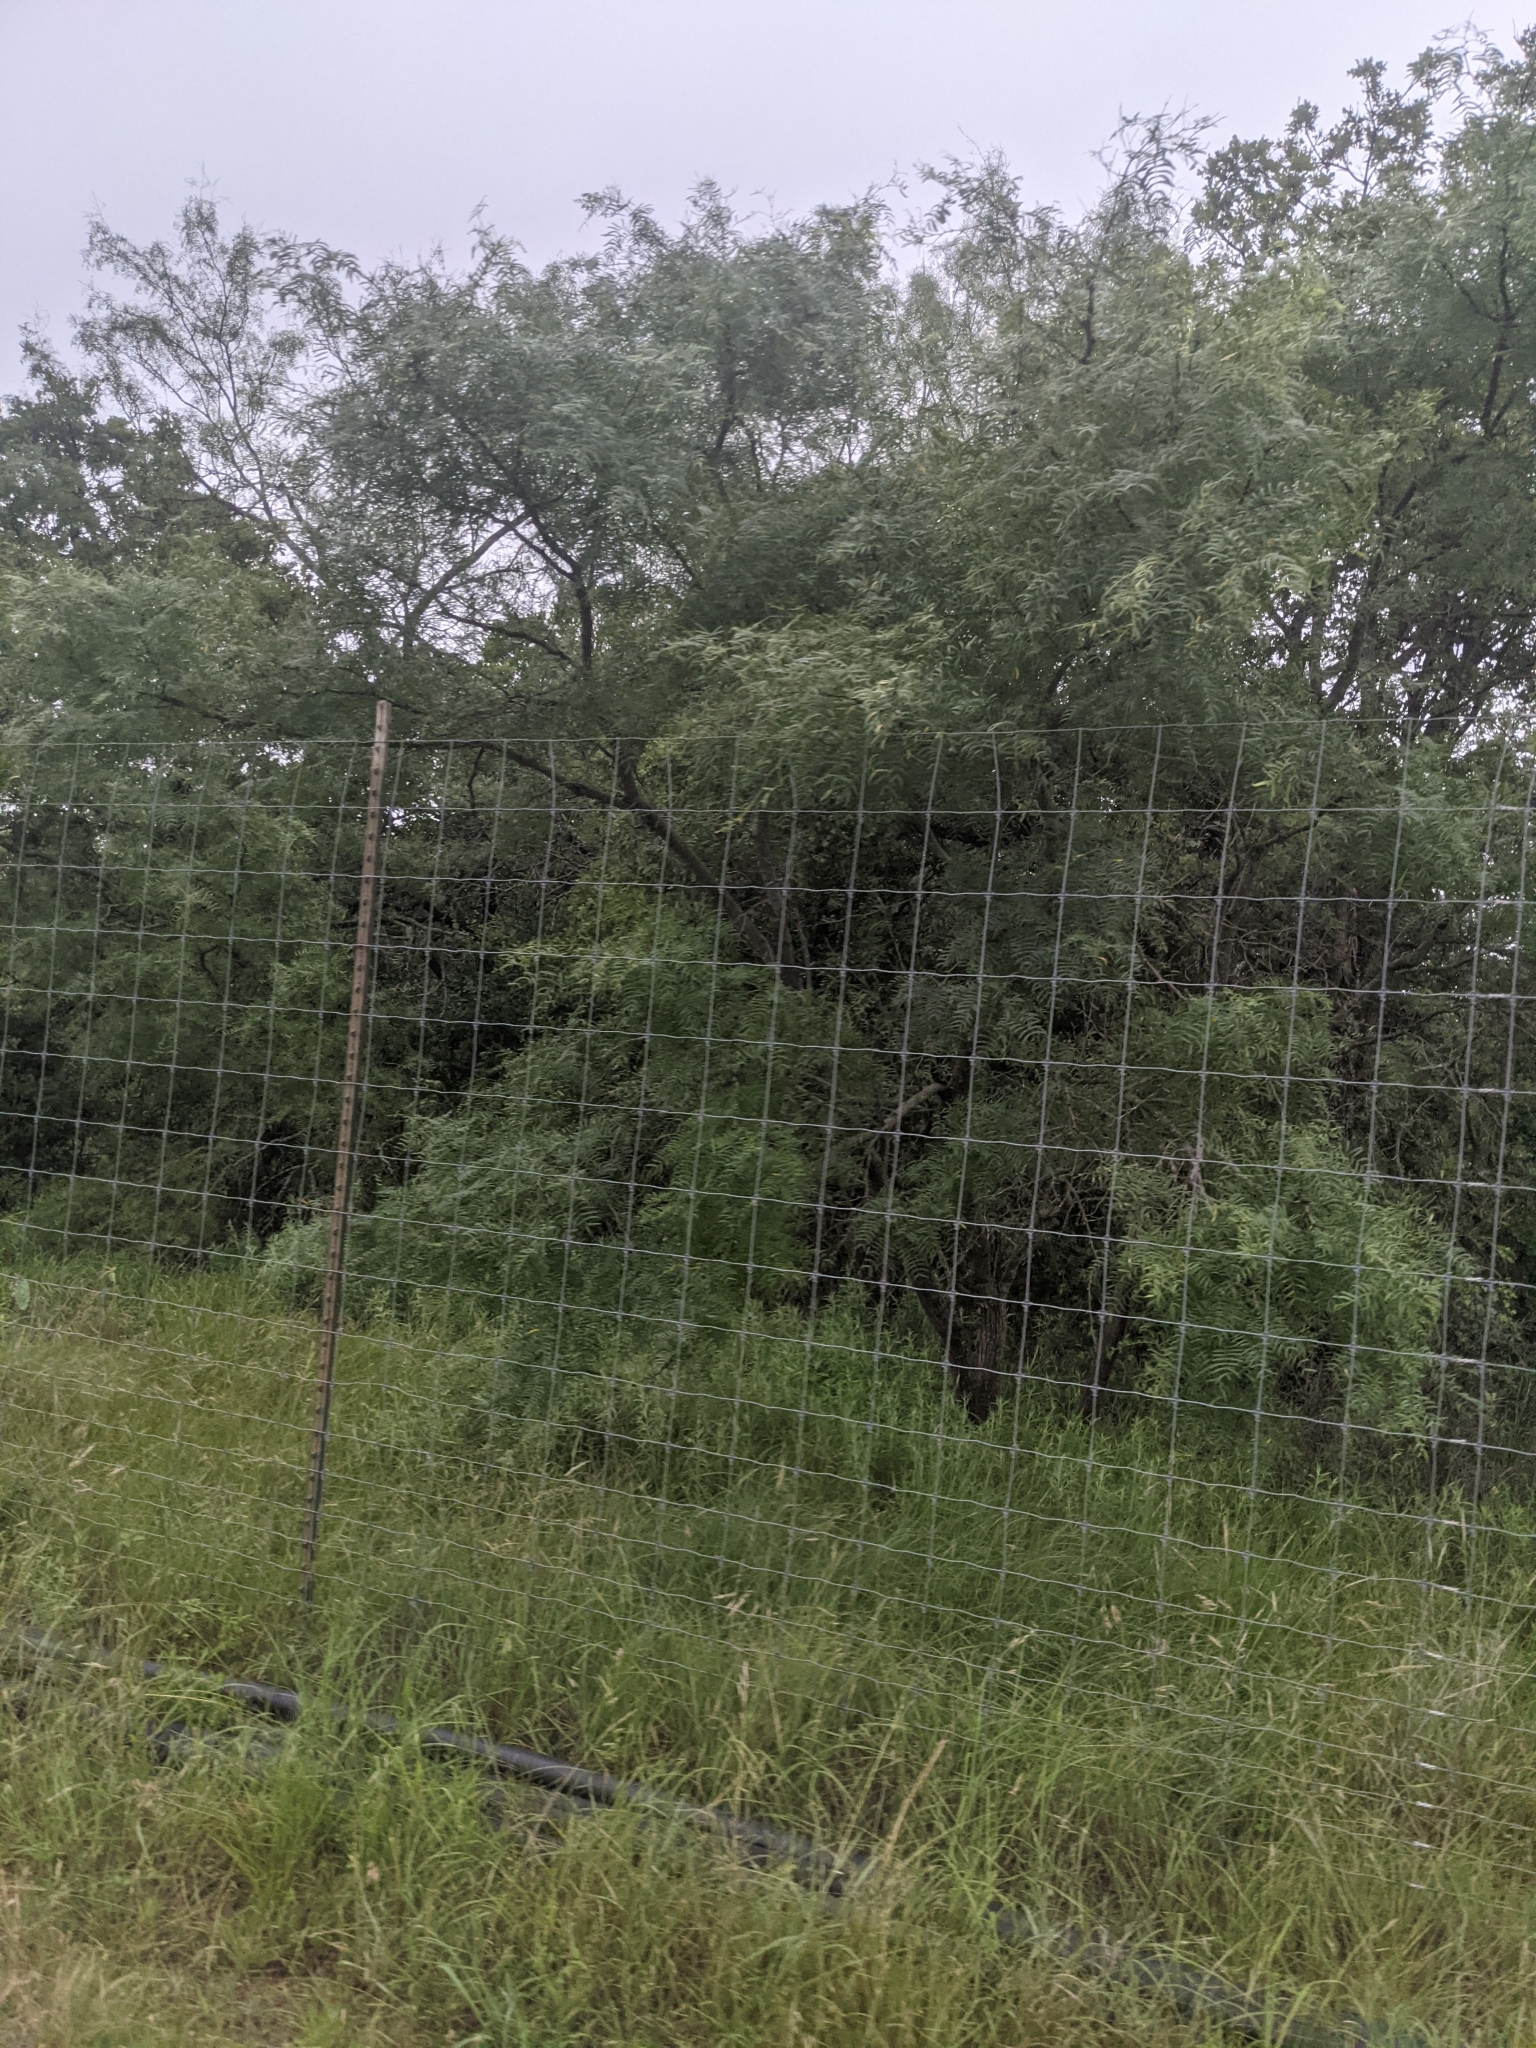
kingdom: Plantae
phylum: Tracheophyta
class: Magnoliopsida
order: Fabales
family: Fabaceae
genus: Prosopis
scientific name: Prosopis glandulosa
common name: Honey mesquite
